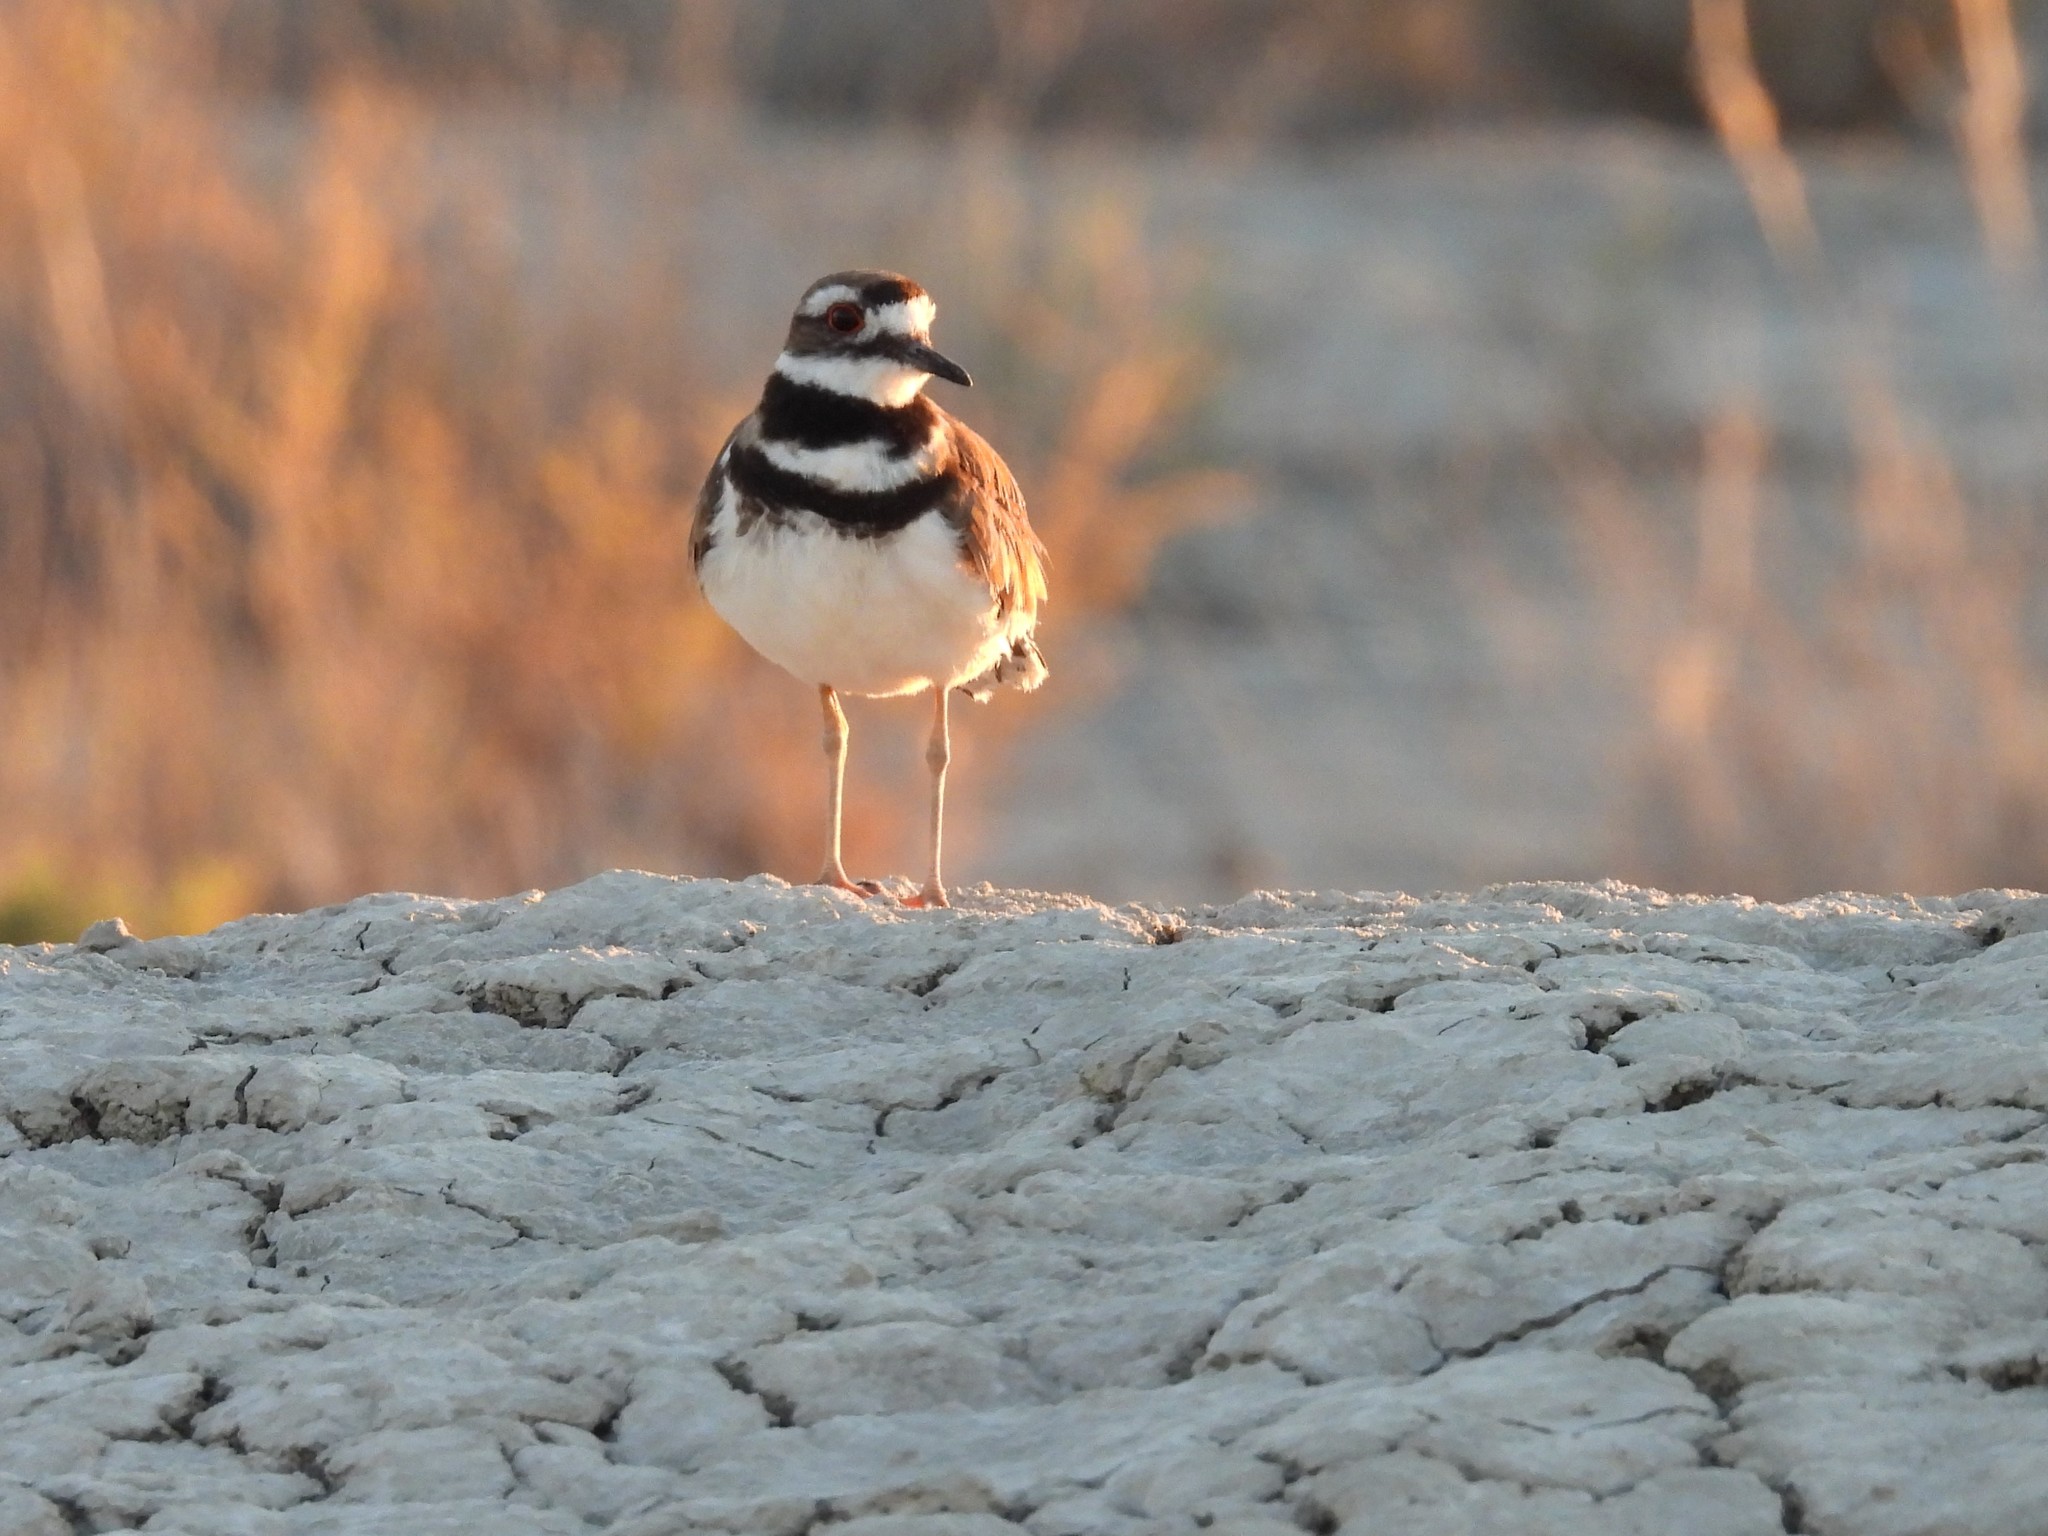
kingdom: Animalia
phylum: Chordata
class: Aves
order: Charadriiformes
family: Charadriidae
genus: Charadrius
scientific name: Charadrius vociferus
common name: Killdeer
